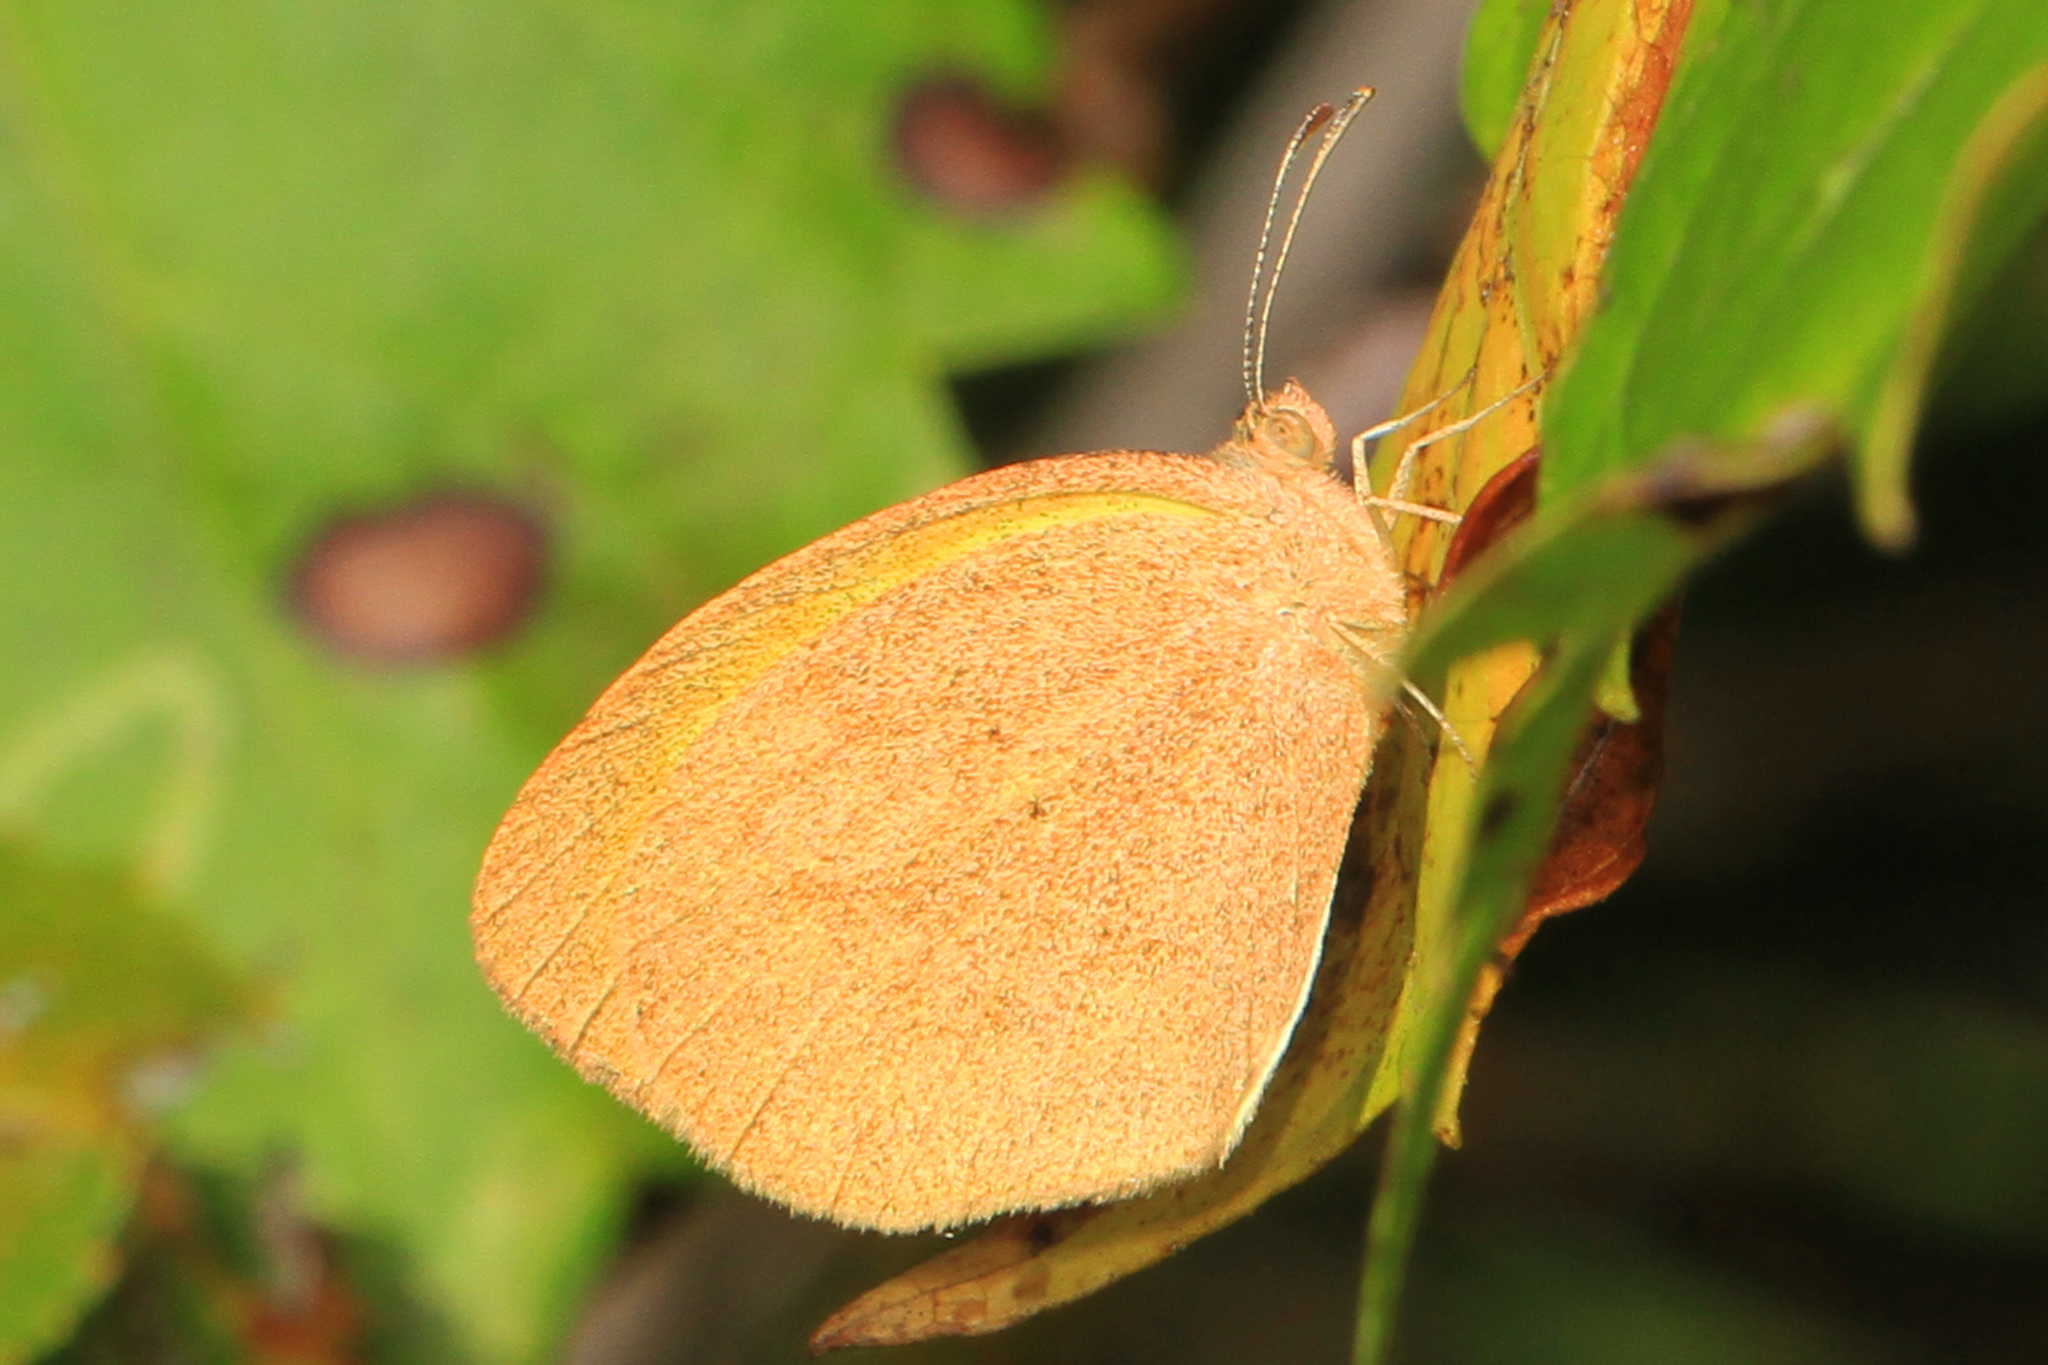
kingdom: Animalia
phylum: Arthropoda
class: Insecta
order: Lepidoptera
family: Pieridae
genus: Eurema
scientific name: Eurema daira
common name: Barred sulphur
